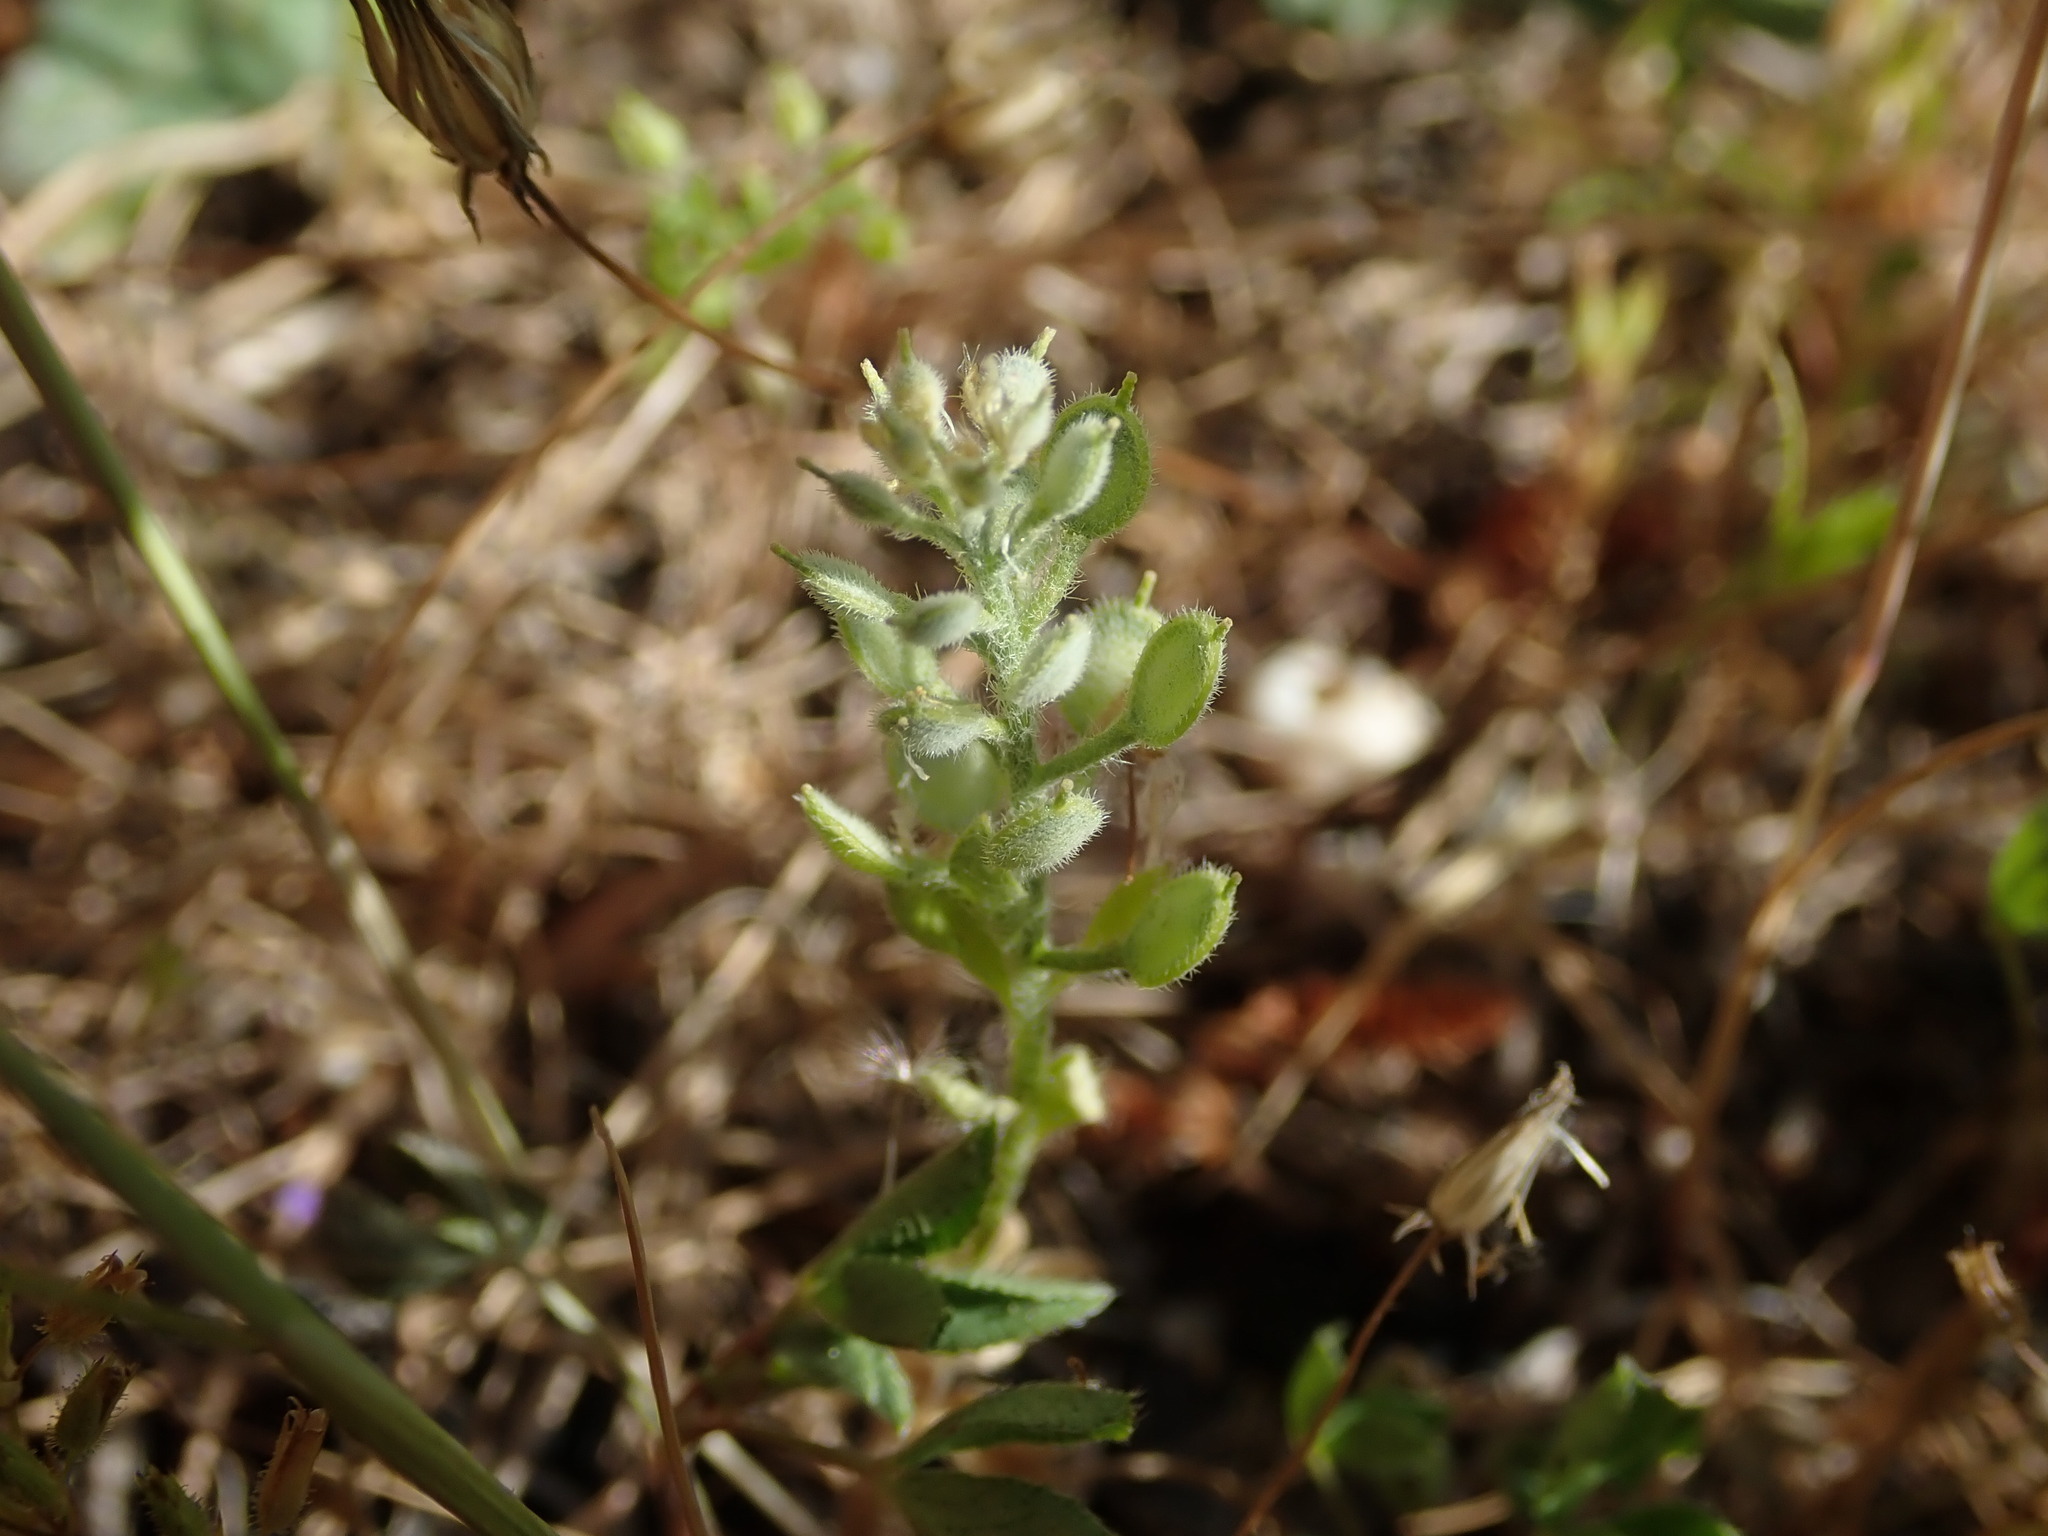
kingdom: Plantae
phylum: Tracheophyta
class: Magnoliopsida
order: Brassicales
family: Brassicaceae
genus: Alyssum
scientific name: Alyssum simplex
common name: Alyssum
